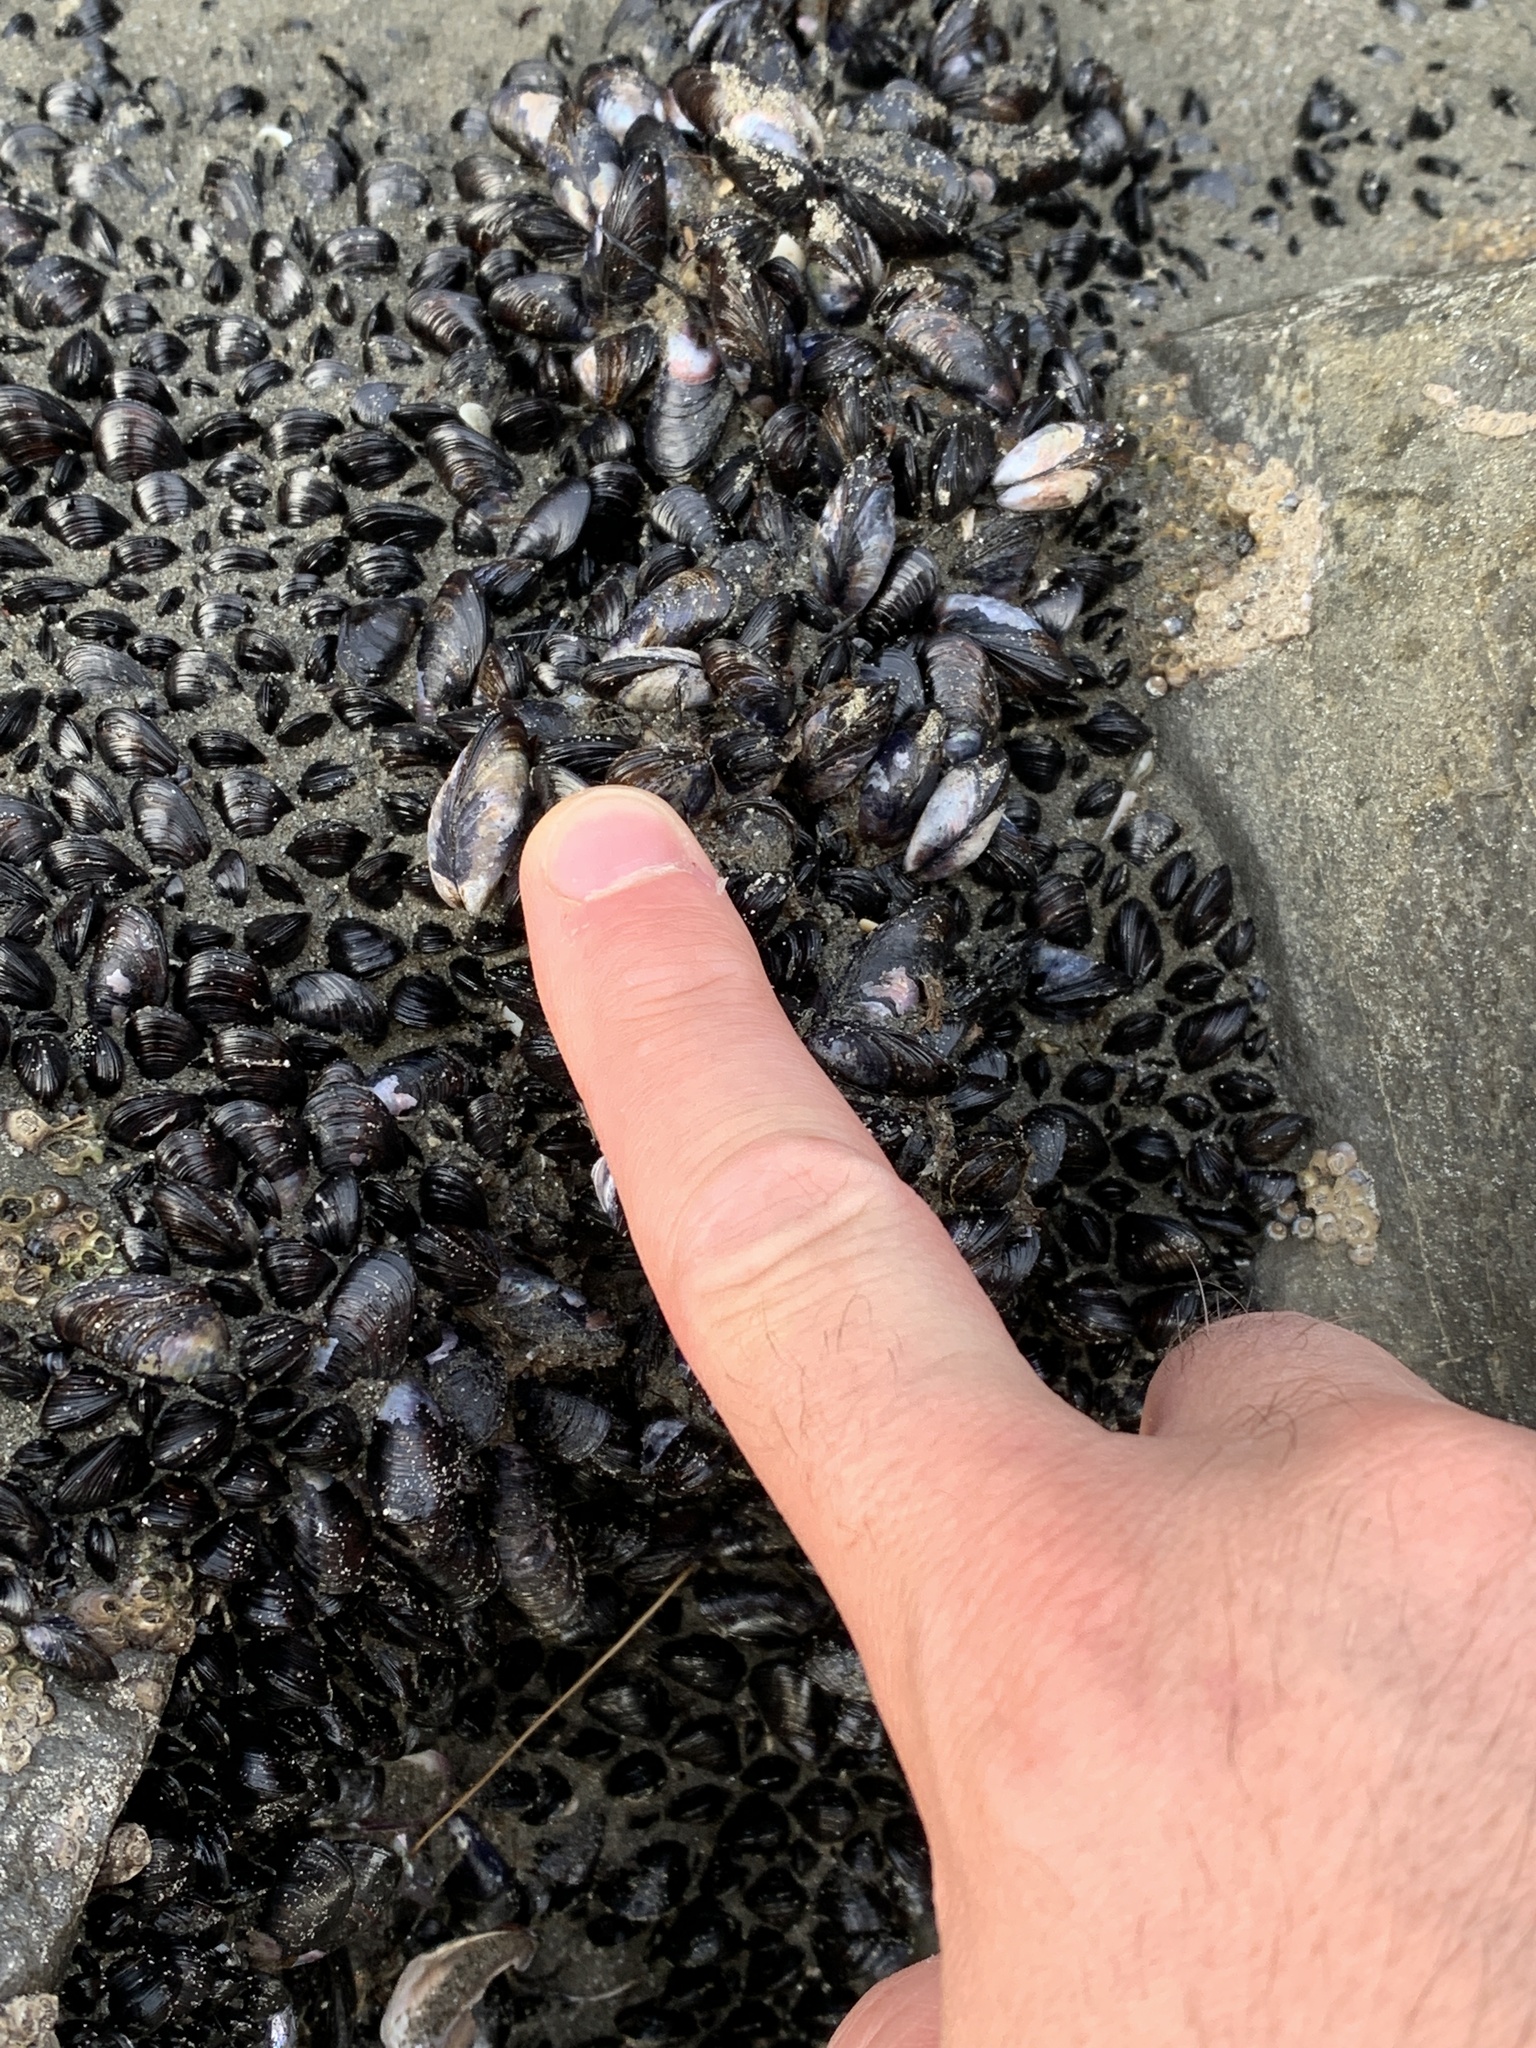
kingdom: Animalia
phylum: Mollusca
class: Bivalvia
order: Mytilida
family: Mytilidae
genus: Xenostrobus
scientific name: Xenostrobus neozelanicus
